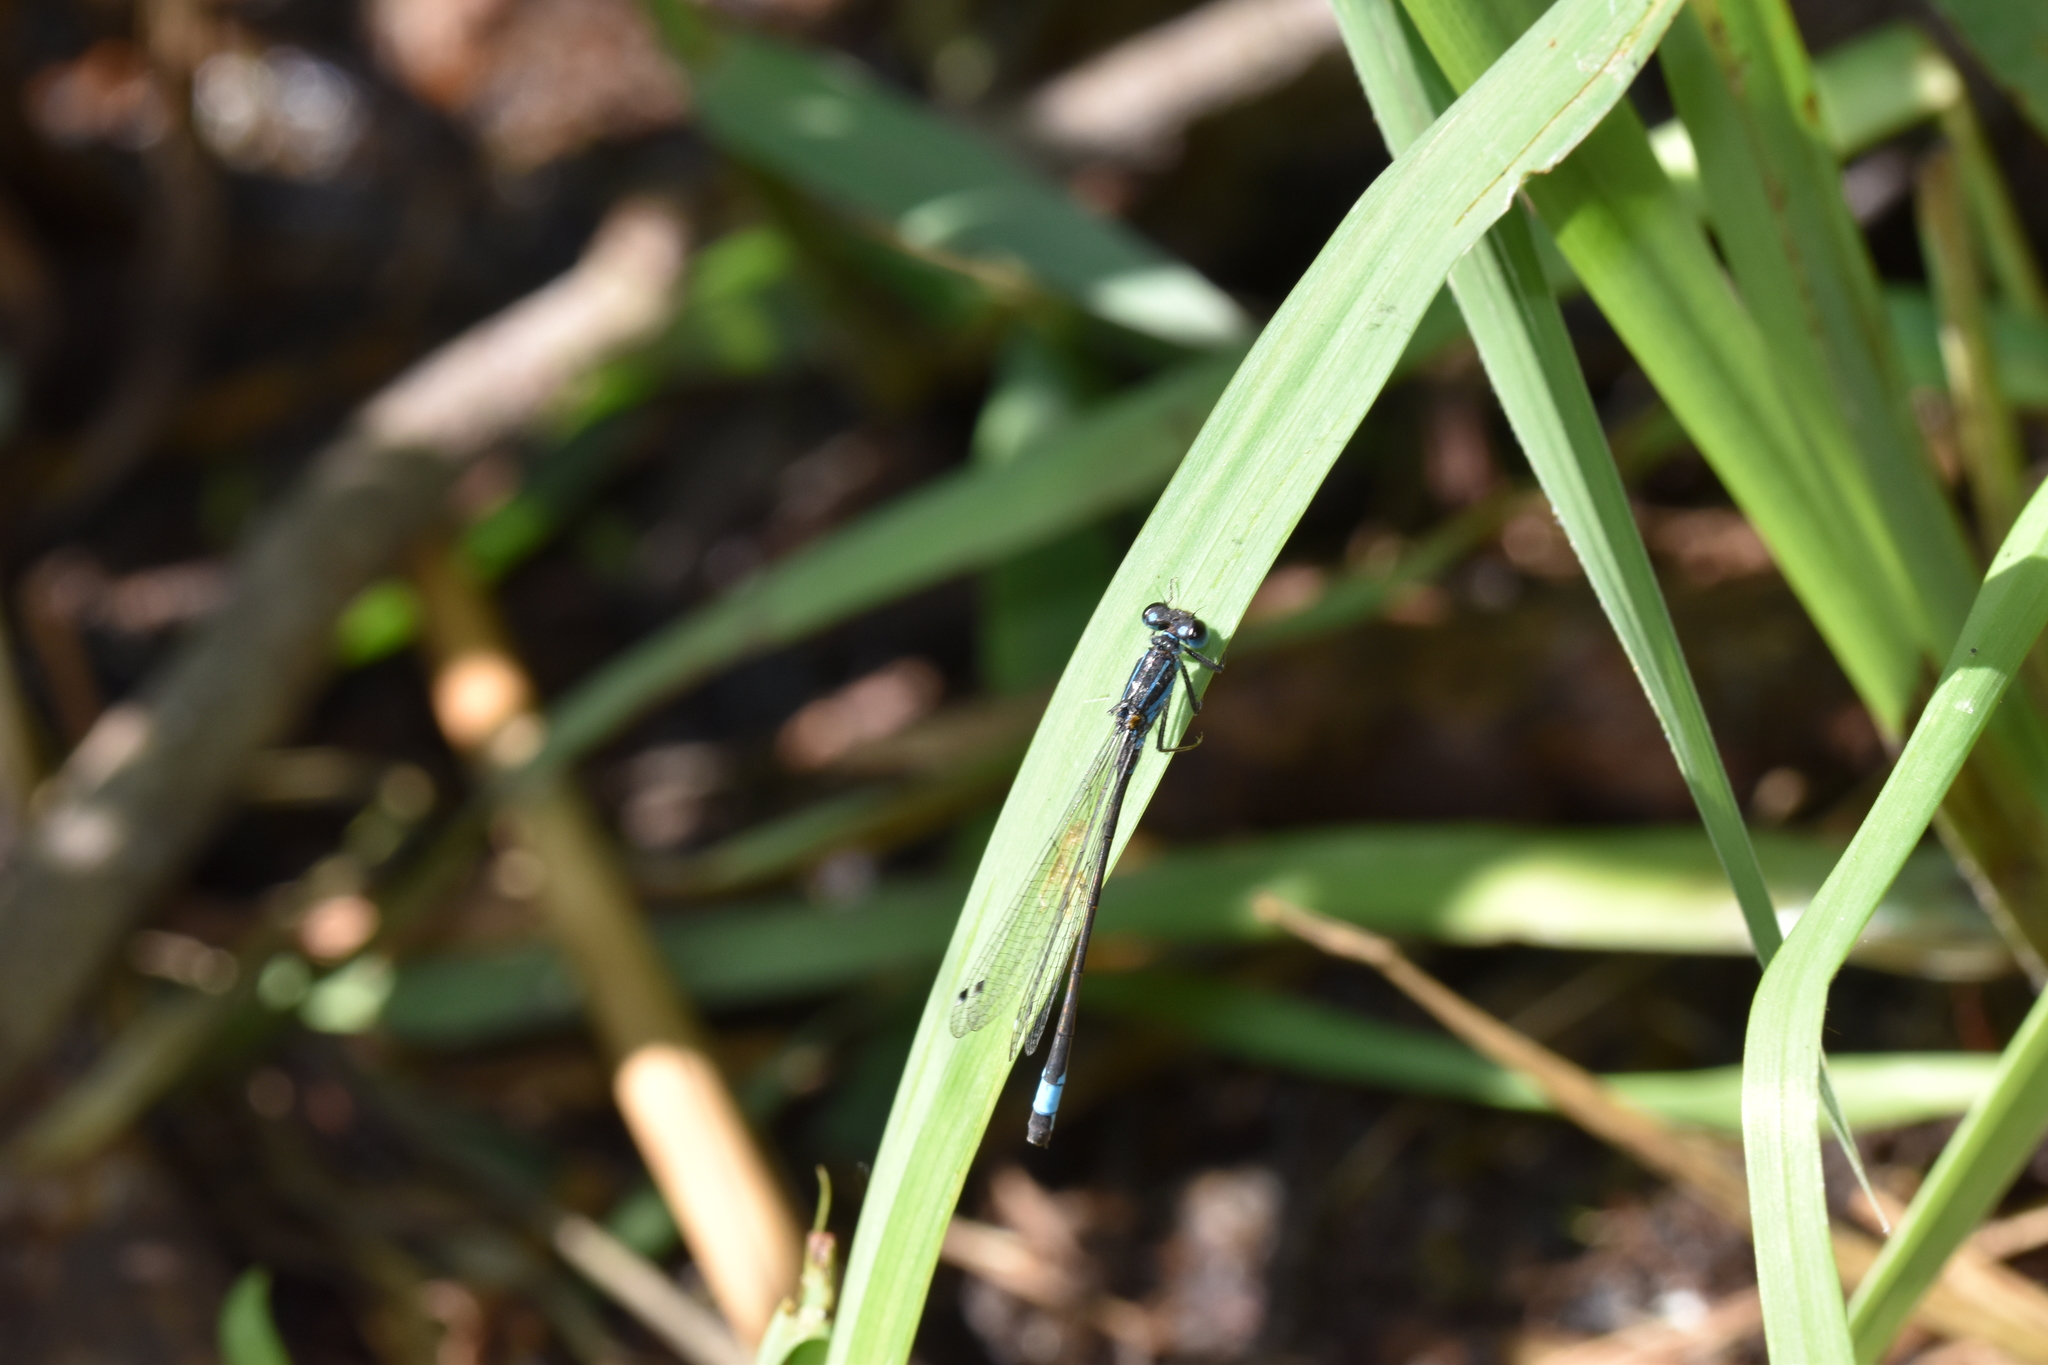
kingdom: Animalia
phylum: Arthropoda
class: Insecta
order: Odonata
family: Coenagrionidae
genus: Ischnura
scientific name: Ischnura elegans
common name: Blue-tailed damselfly
